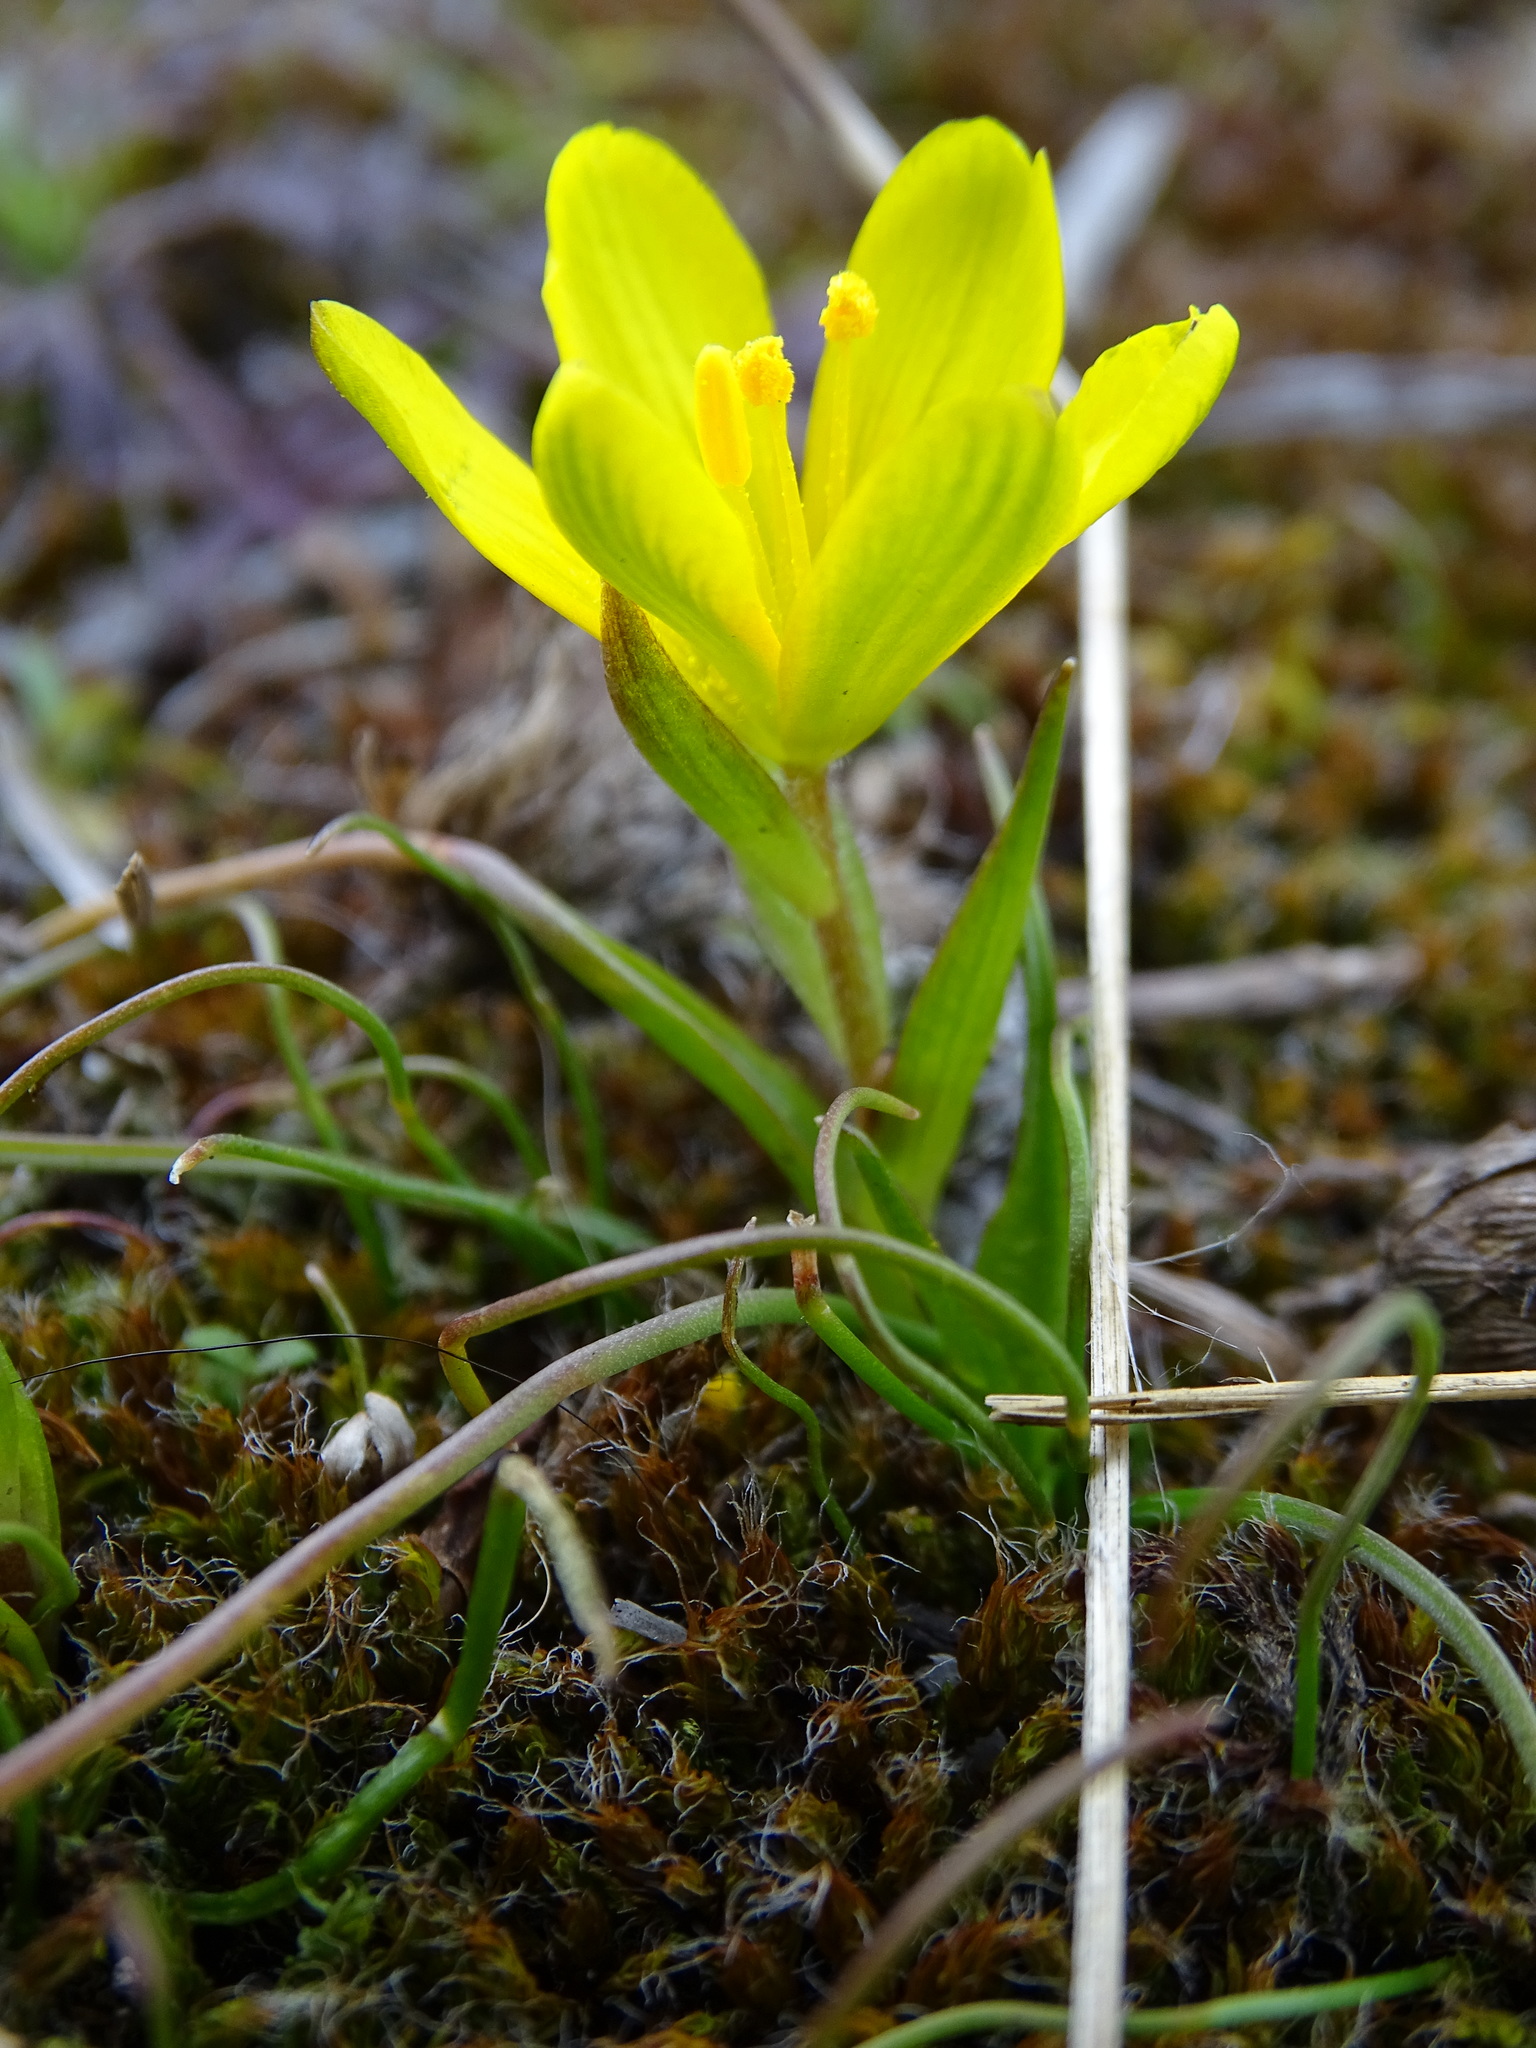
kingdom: Plantae
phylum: Tracheophyta
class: Liliopsida
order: Liliales
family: Liliaceae
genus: Gagea
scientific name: Gagea bohemica
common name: Early star-of-bethlehem
